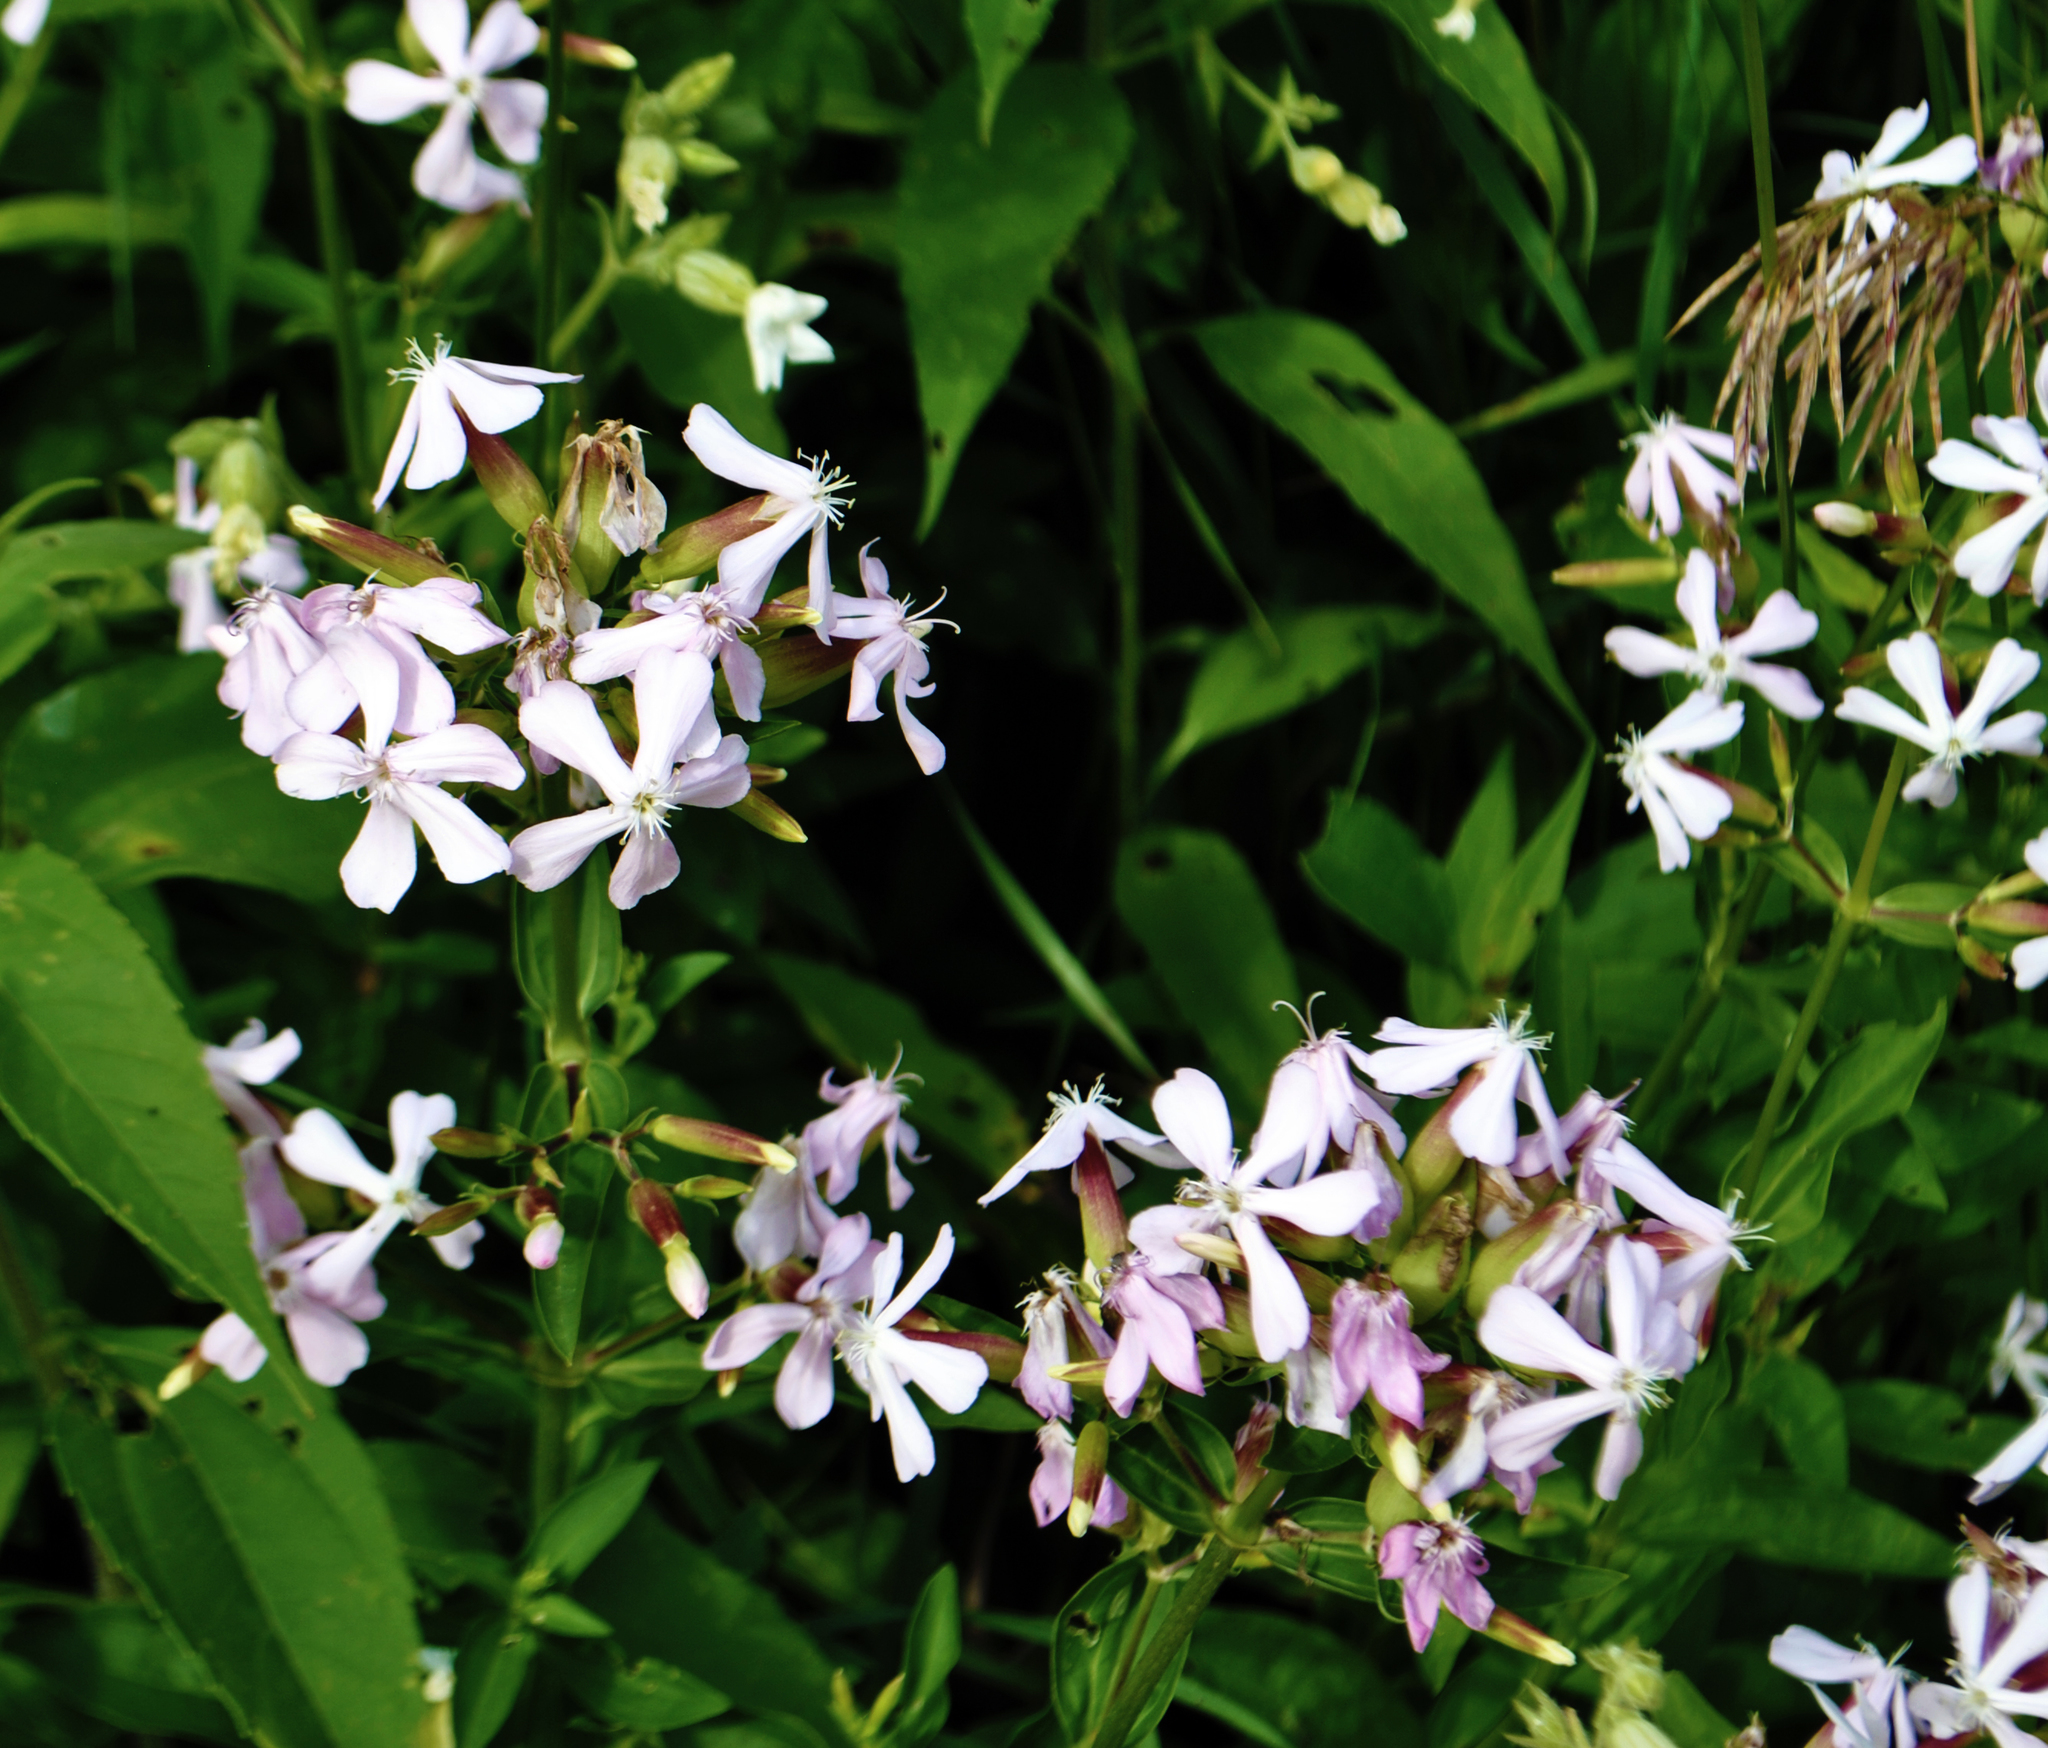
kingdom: Plantae
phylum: Tracheophyta
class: Magnoliopsida
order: Caryophyllales
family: Caryophyllaceae
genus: Saponaria
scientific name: Saponaria officinalis
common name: Soapwort
